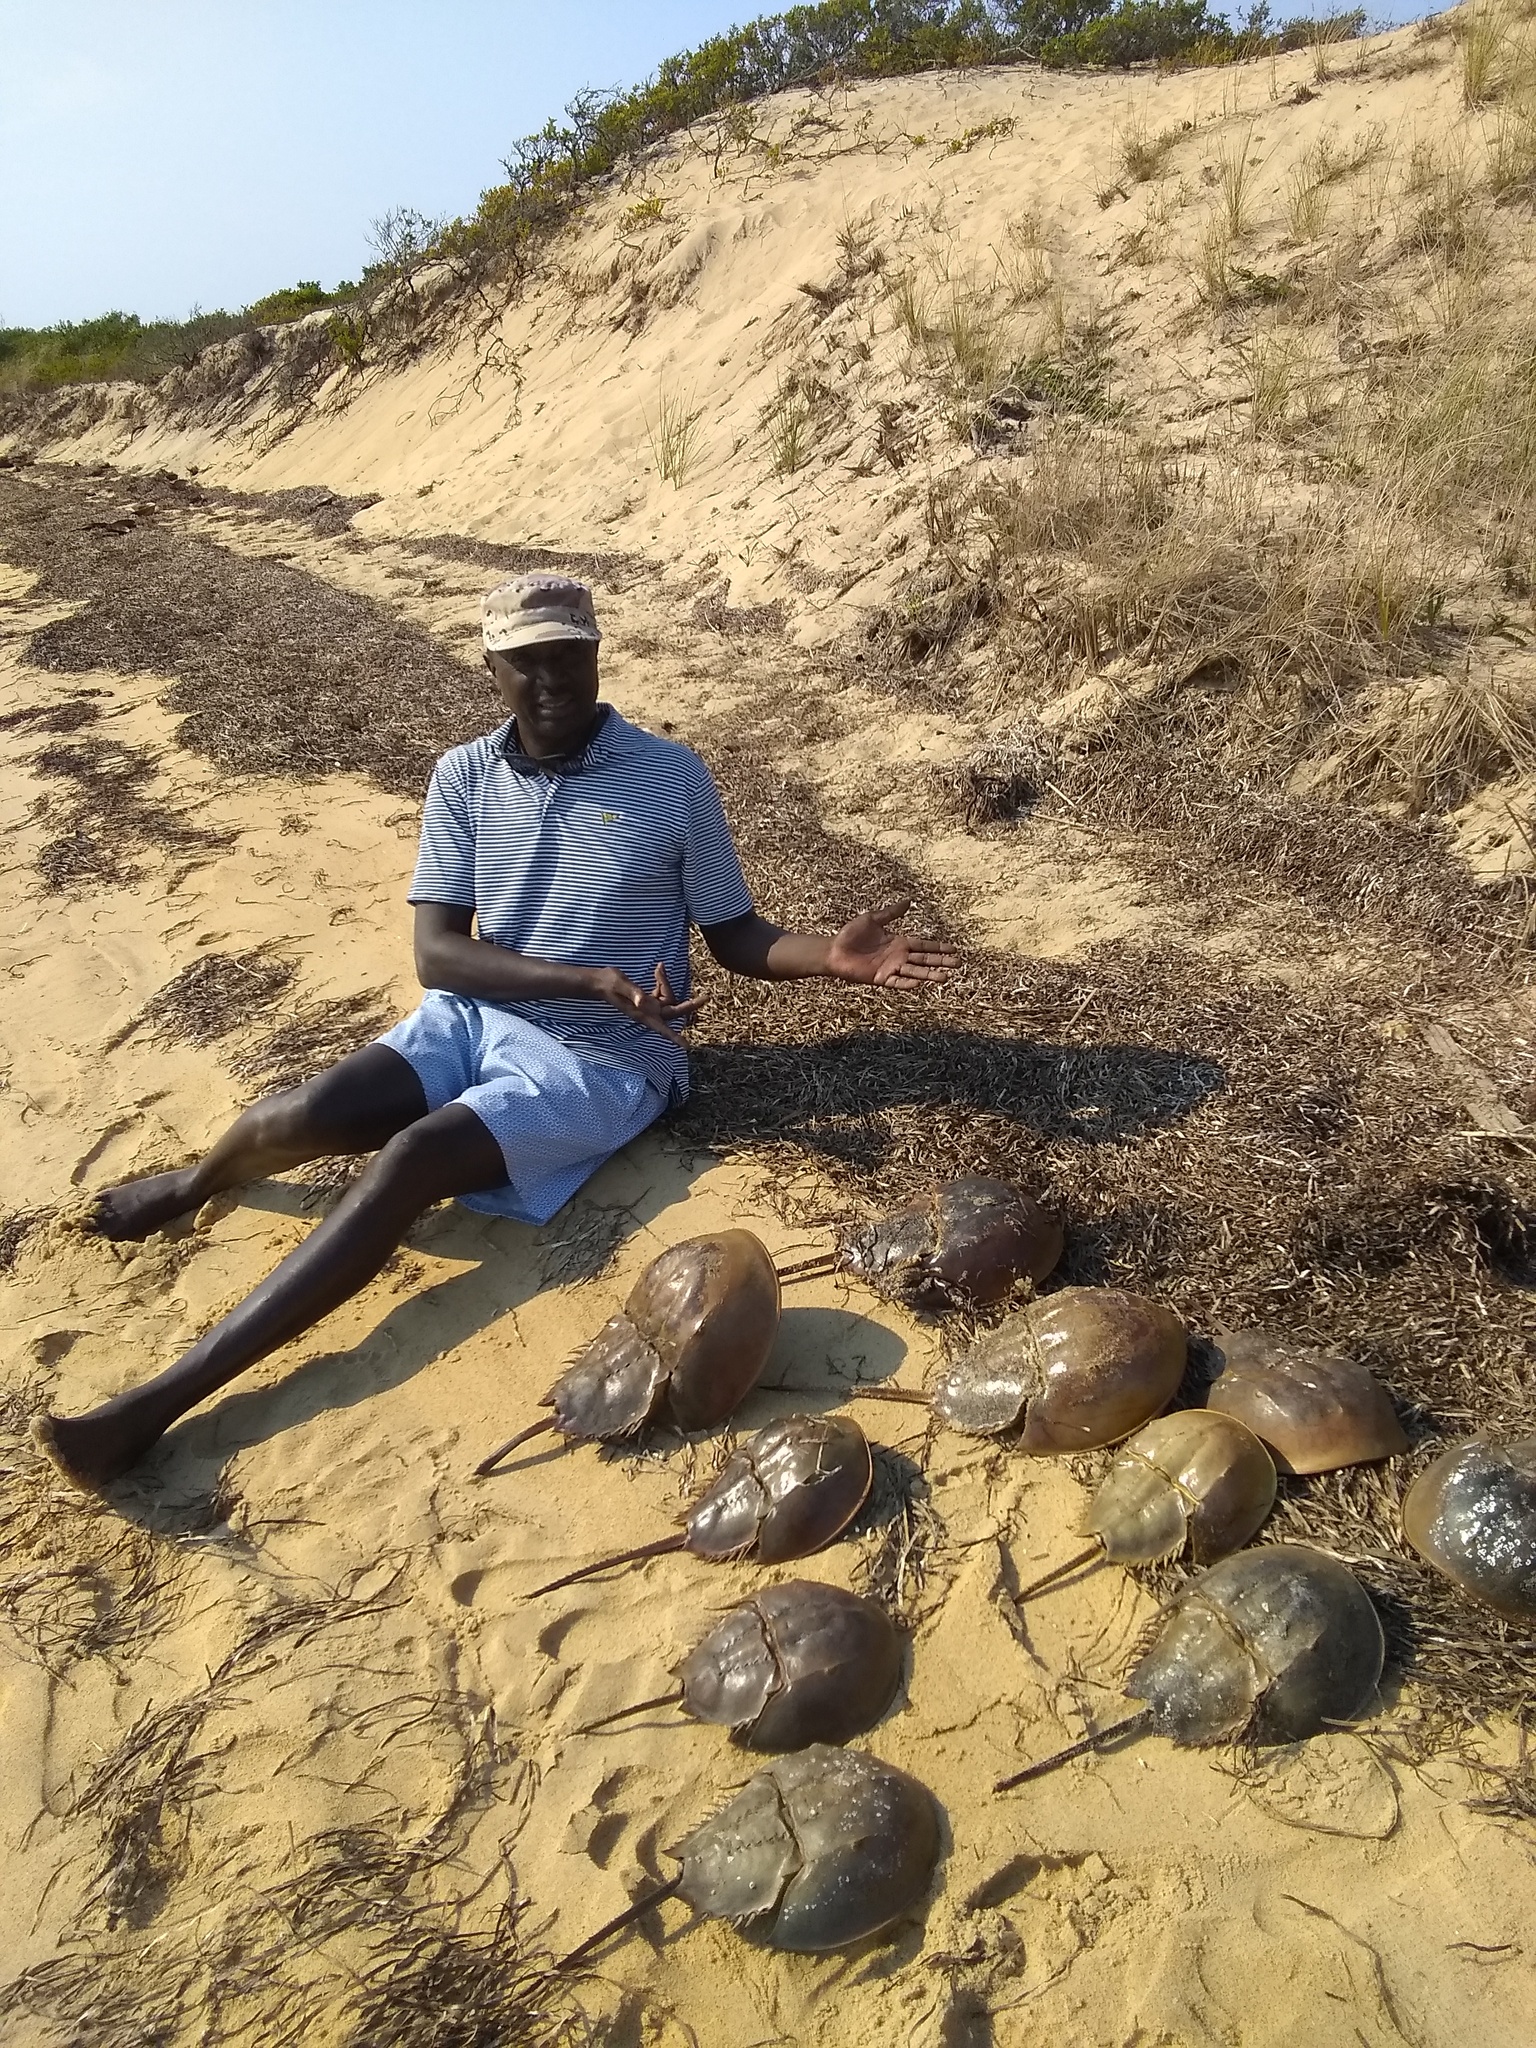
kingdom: Animalia
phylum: Arthropoda
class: Merostomata
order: Xiphosurida
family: Limulidae
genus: Limulus
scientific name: Limulus polyphemus
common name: Horseshoe crab
